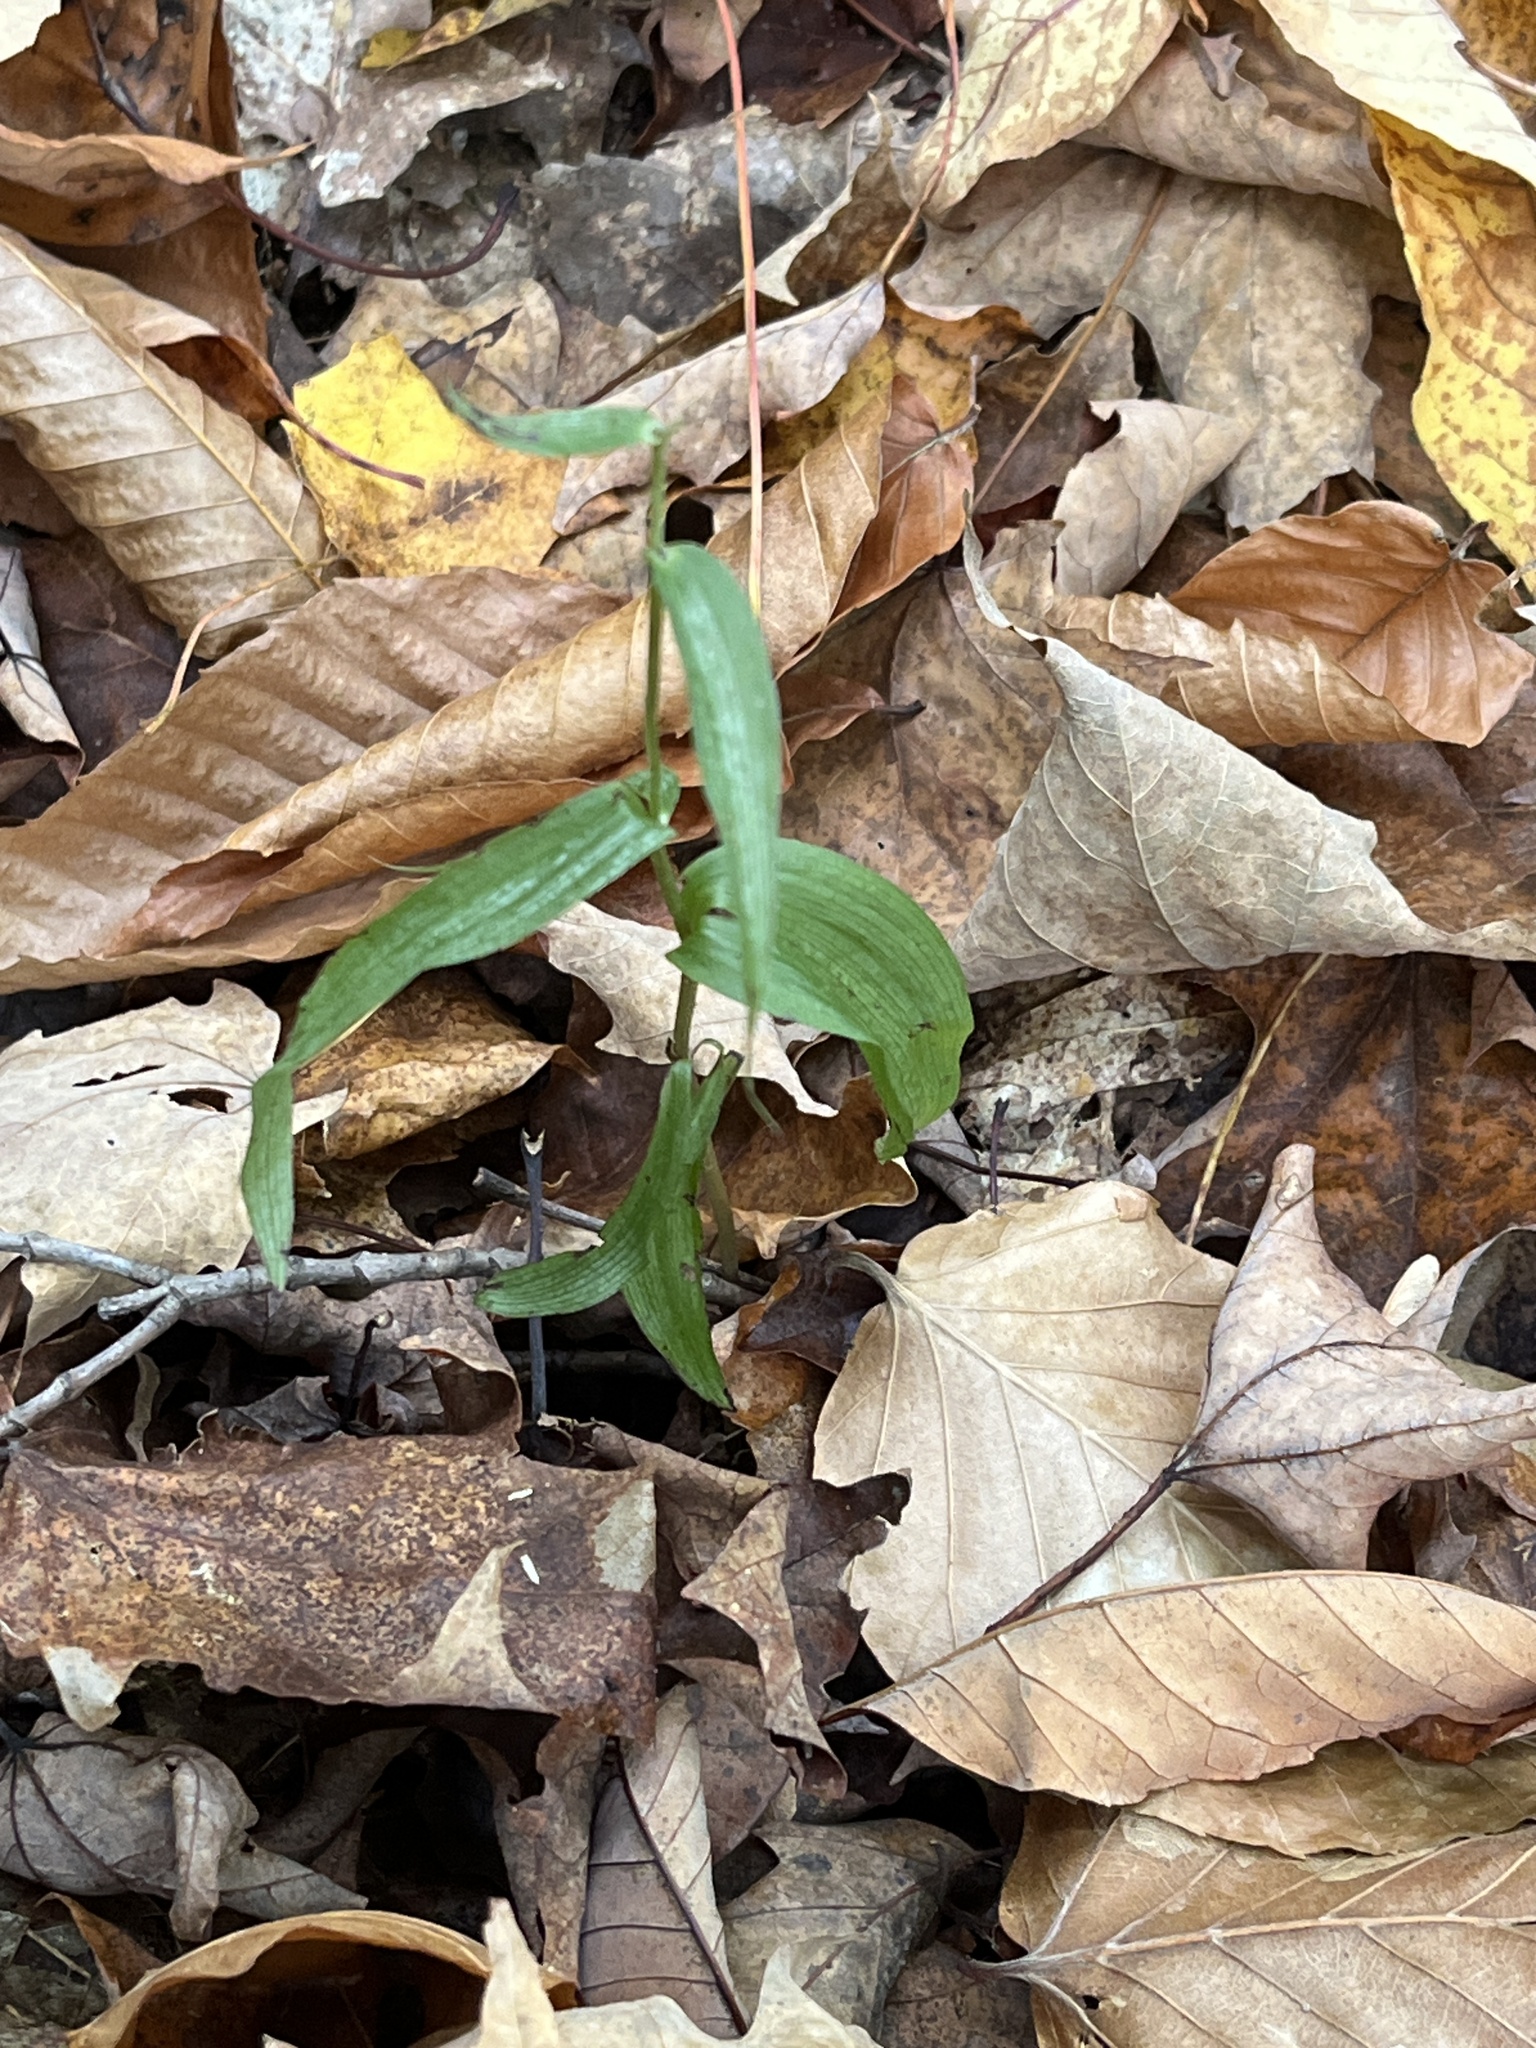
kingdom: Plantae
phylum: Tracheophyta
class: Liliopsida
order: Asparagales
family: Orchidaceae
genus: Epipactis
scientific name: Epipactis helleborine
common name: Broad-leaved helleborine
